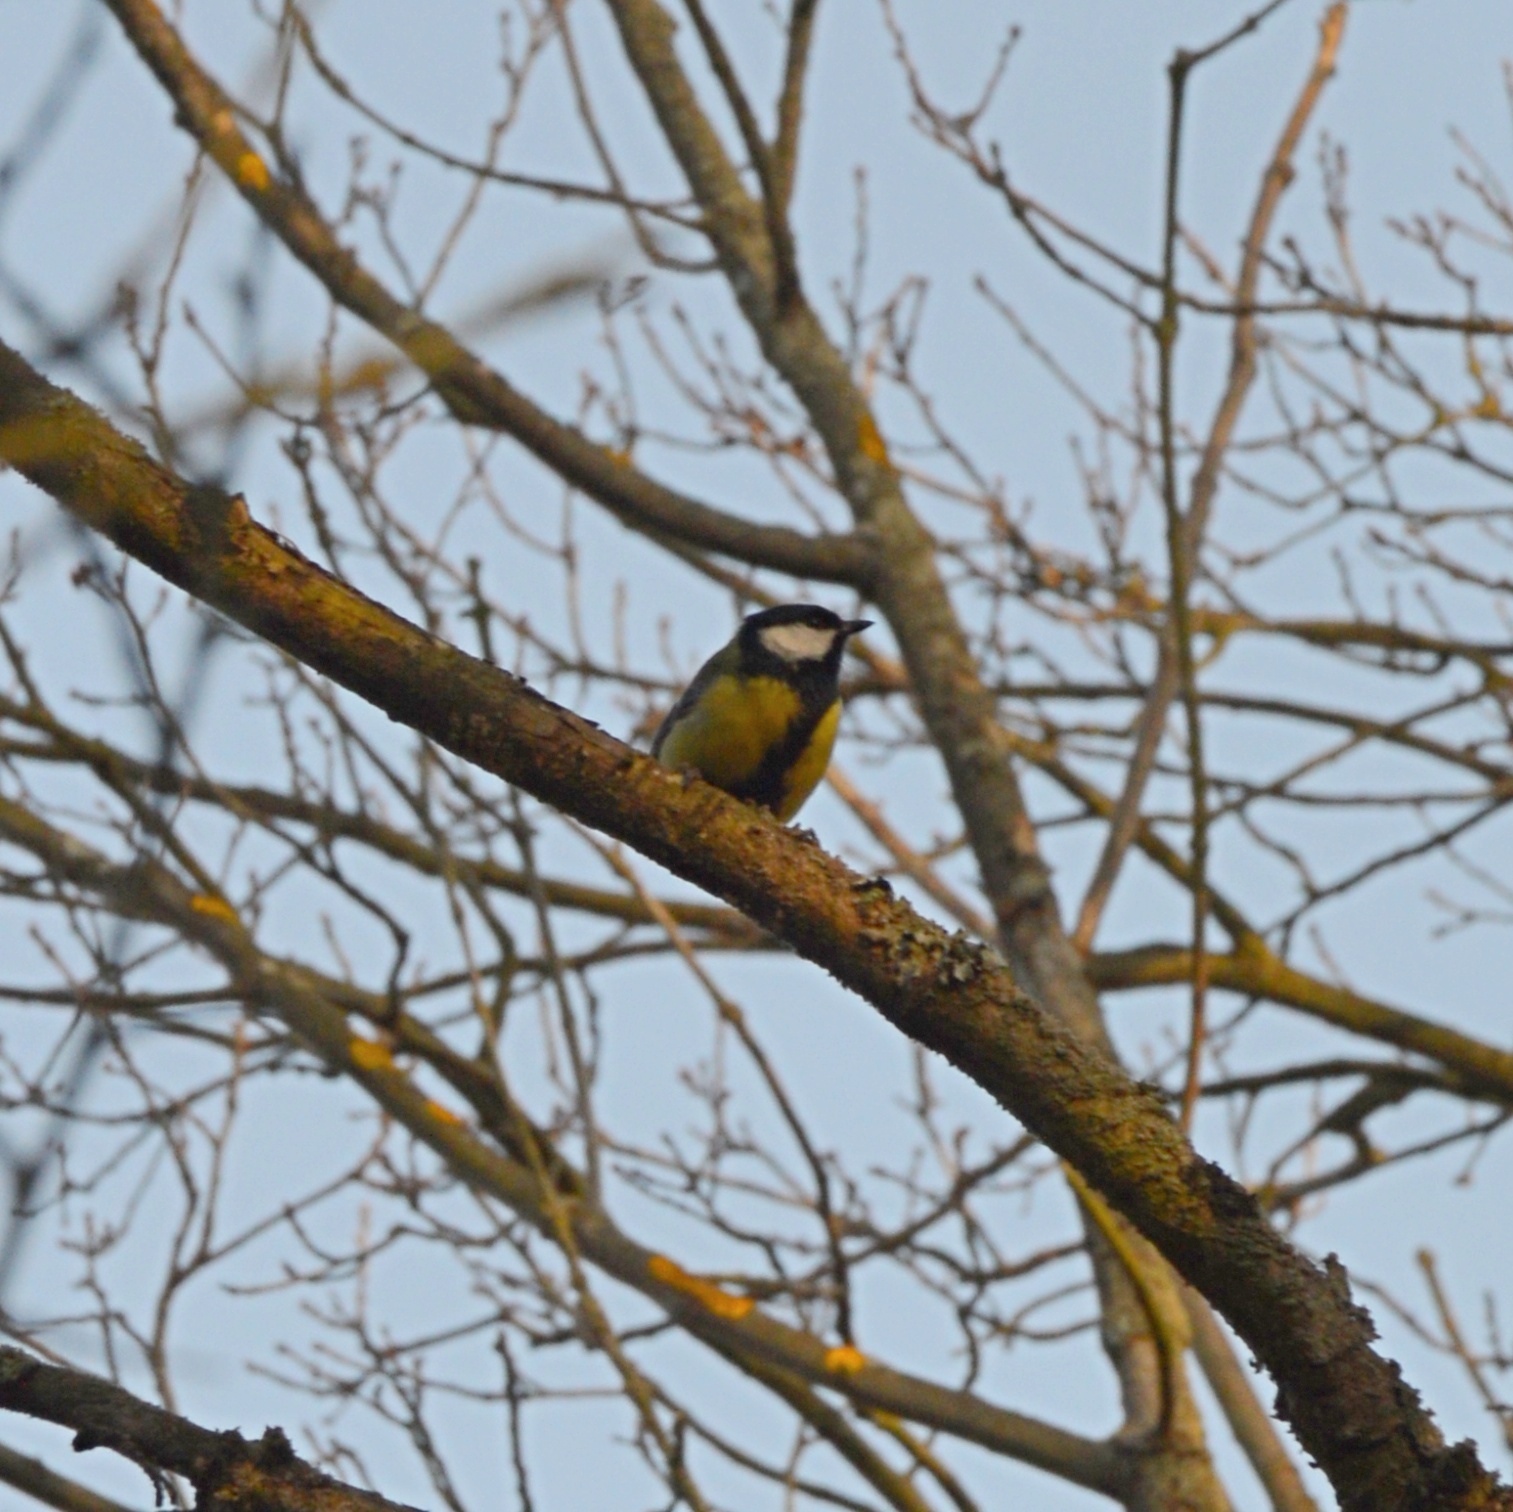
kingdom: Animalia
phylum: Chordata
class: Aves
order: Passeriformes
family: Paridae
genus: Parus
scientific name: Parus major
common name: Great tit
